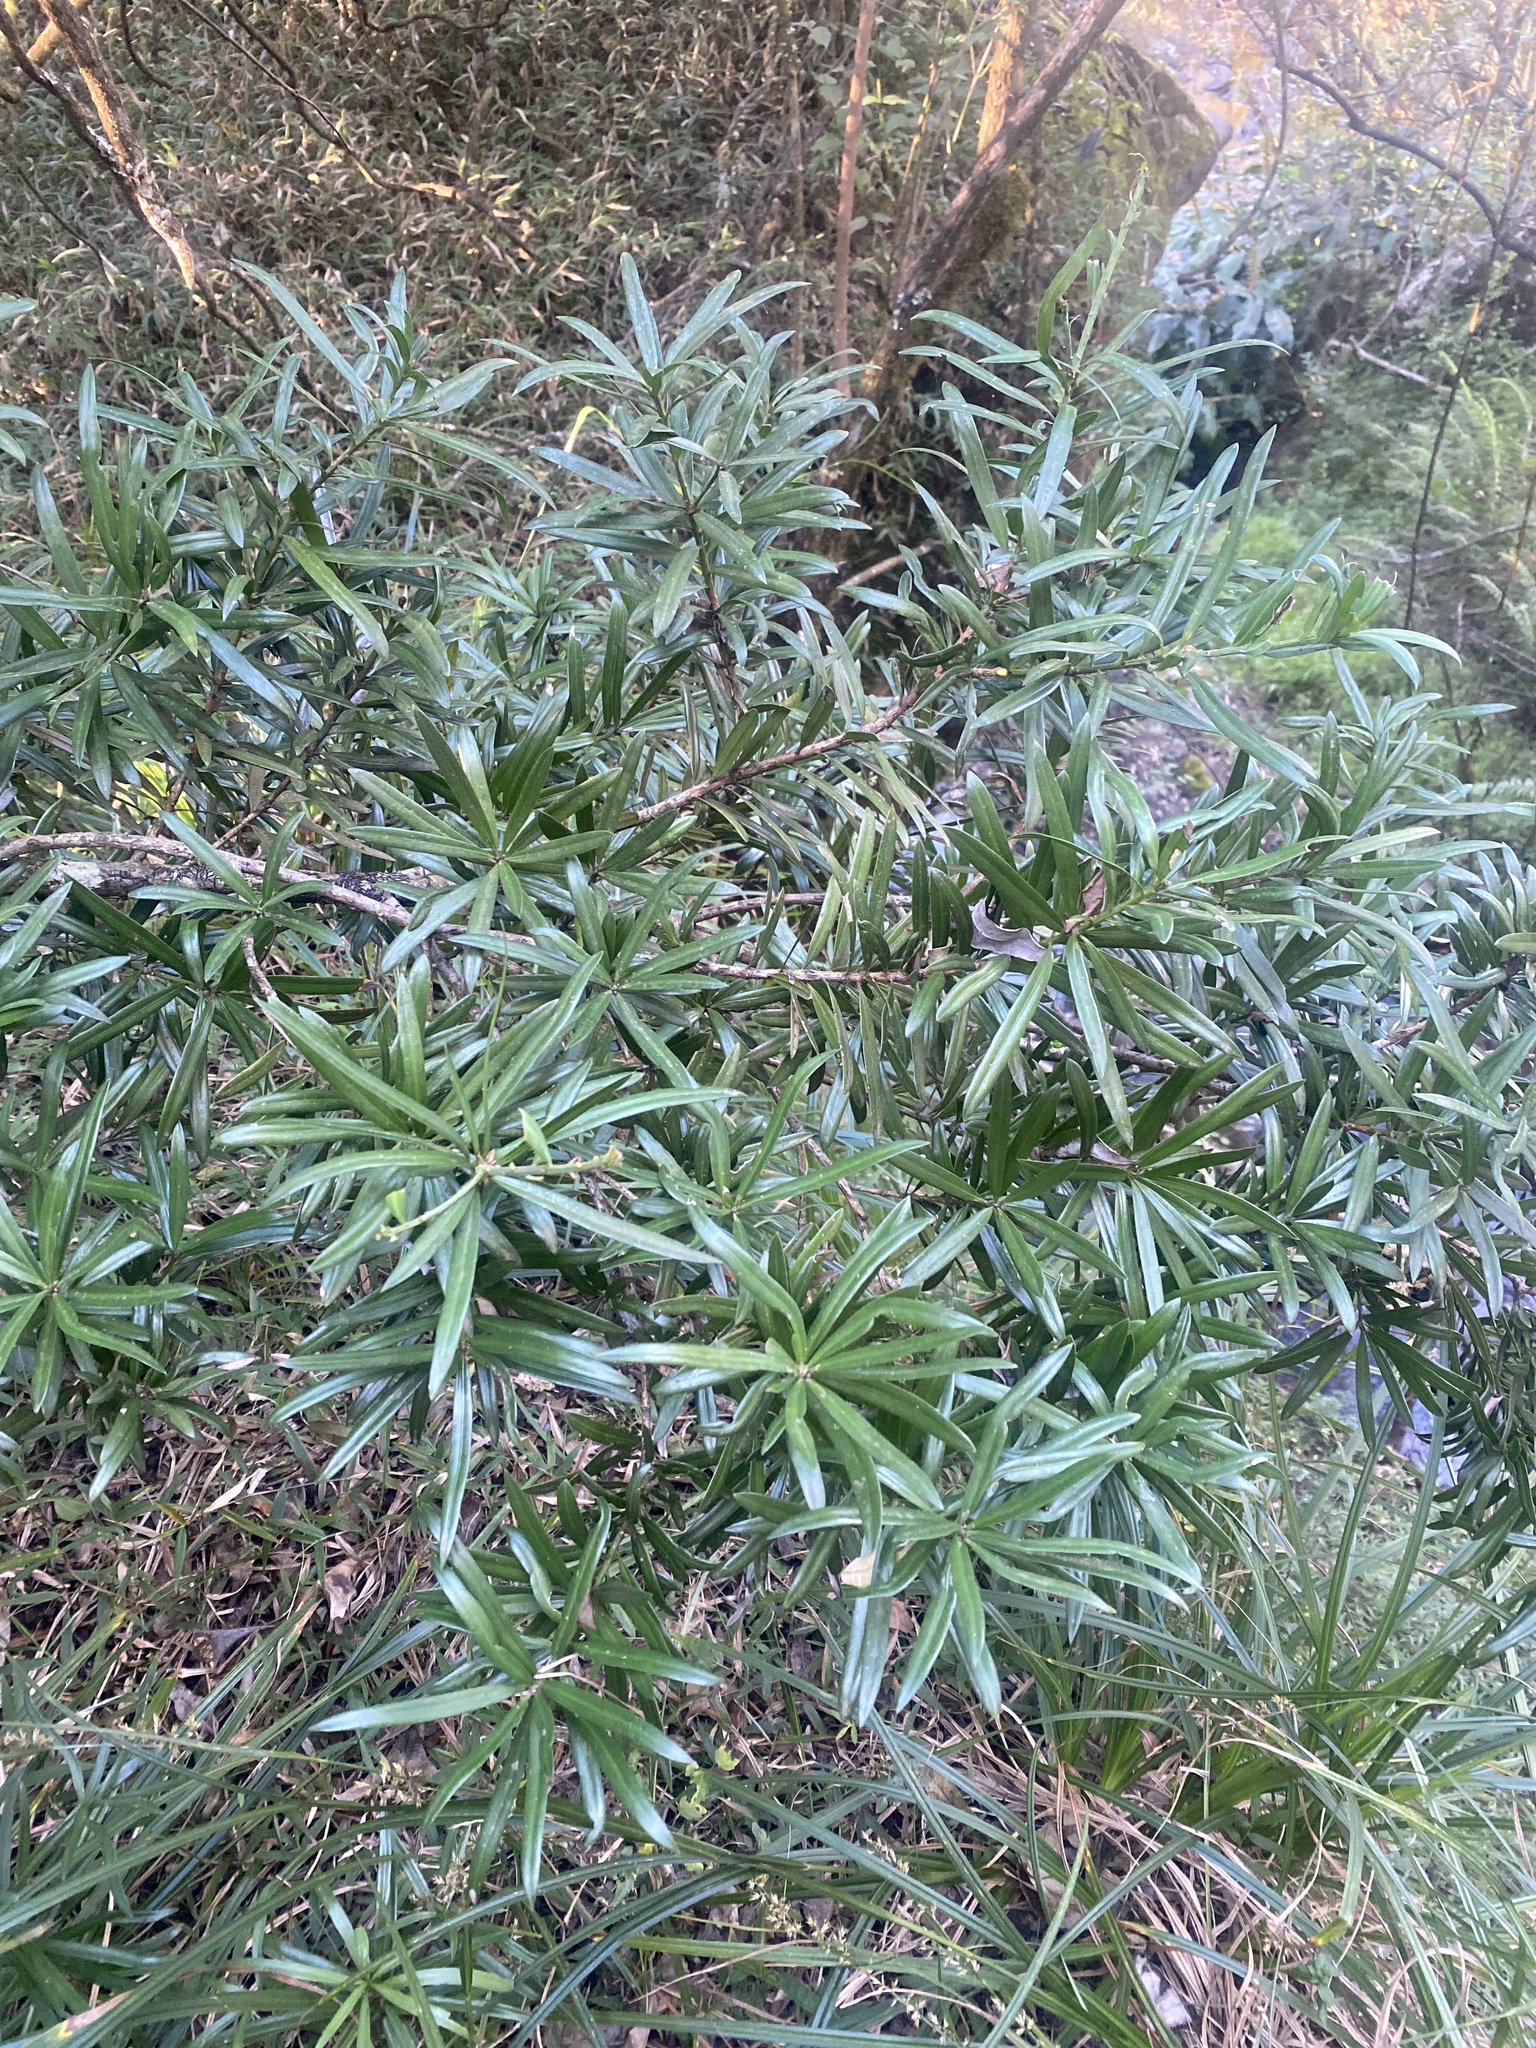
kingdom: Plantae
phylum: Tracheophyta
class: Pinopsida
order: Pinales
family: Podocarpaceae
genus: Podocarpus
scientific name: Podocarpus latifolius
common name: True yellowwood
